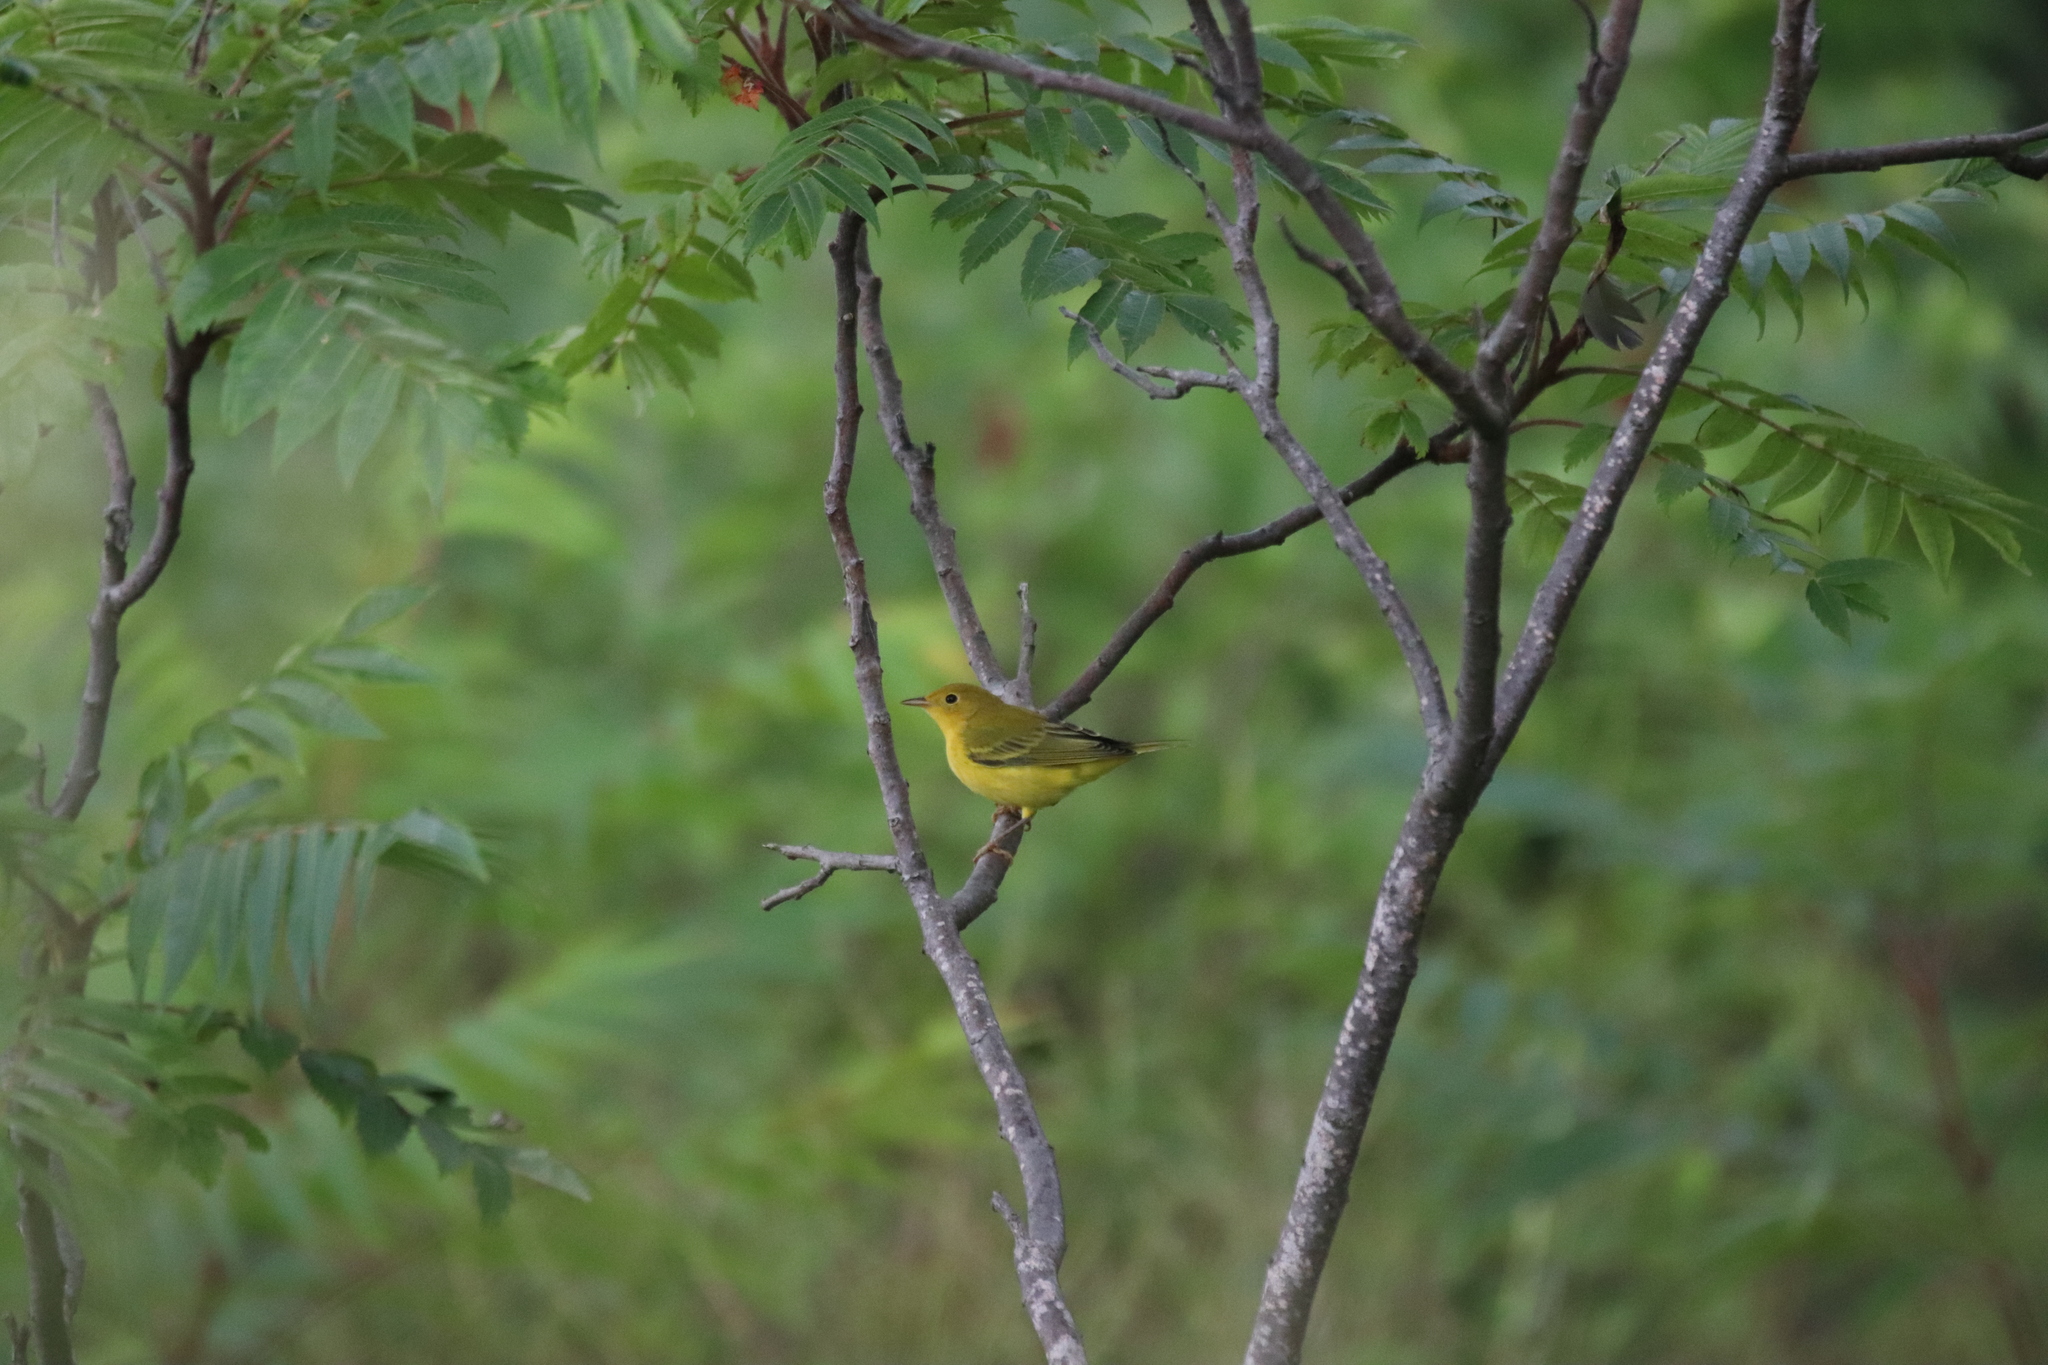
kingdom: Animalia
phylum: Chordata
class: Aves
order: Passeriformes
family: Parulidae
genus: Setophaga
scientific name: Setophaga petechia
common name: Yellow warbler
